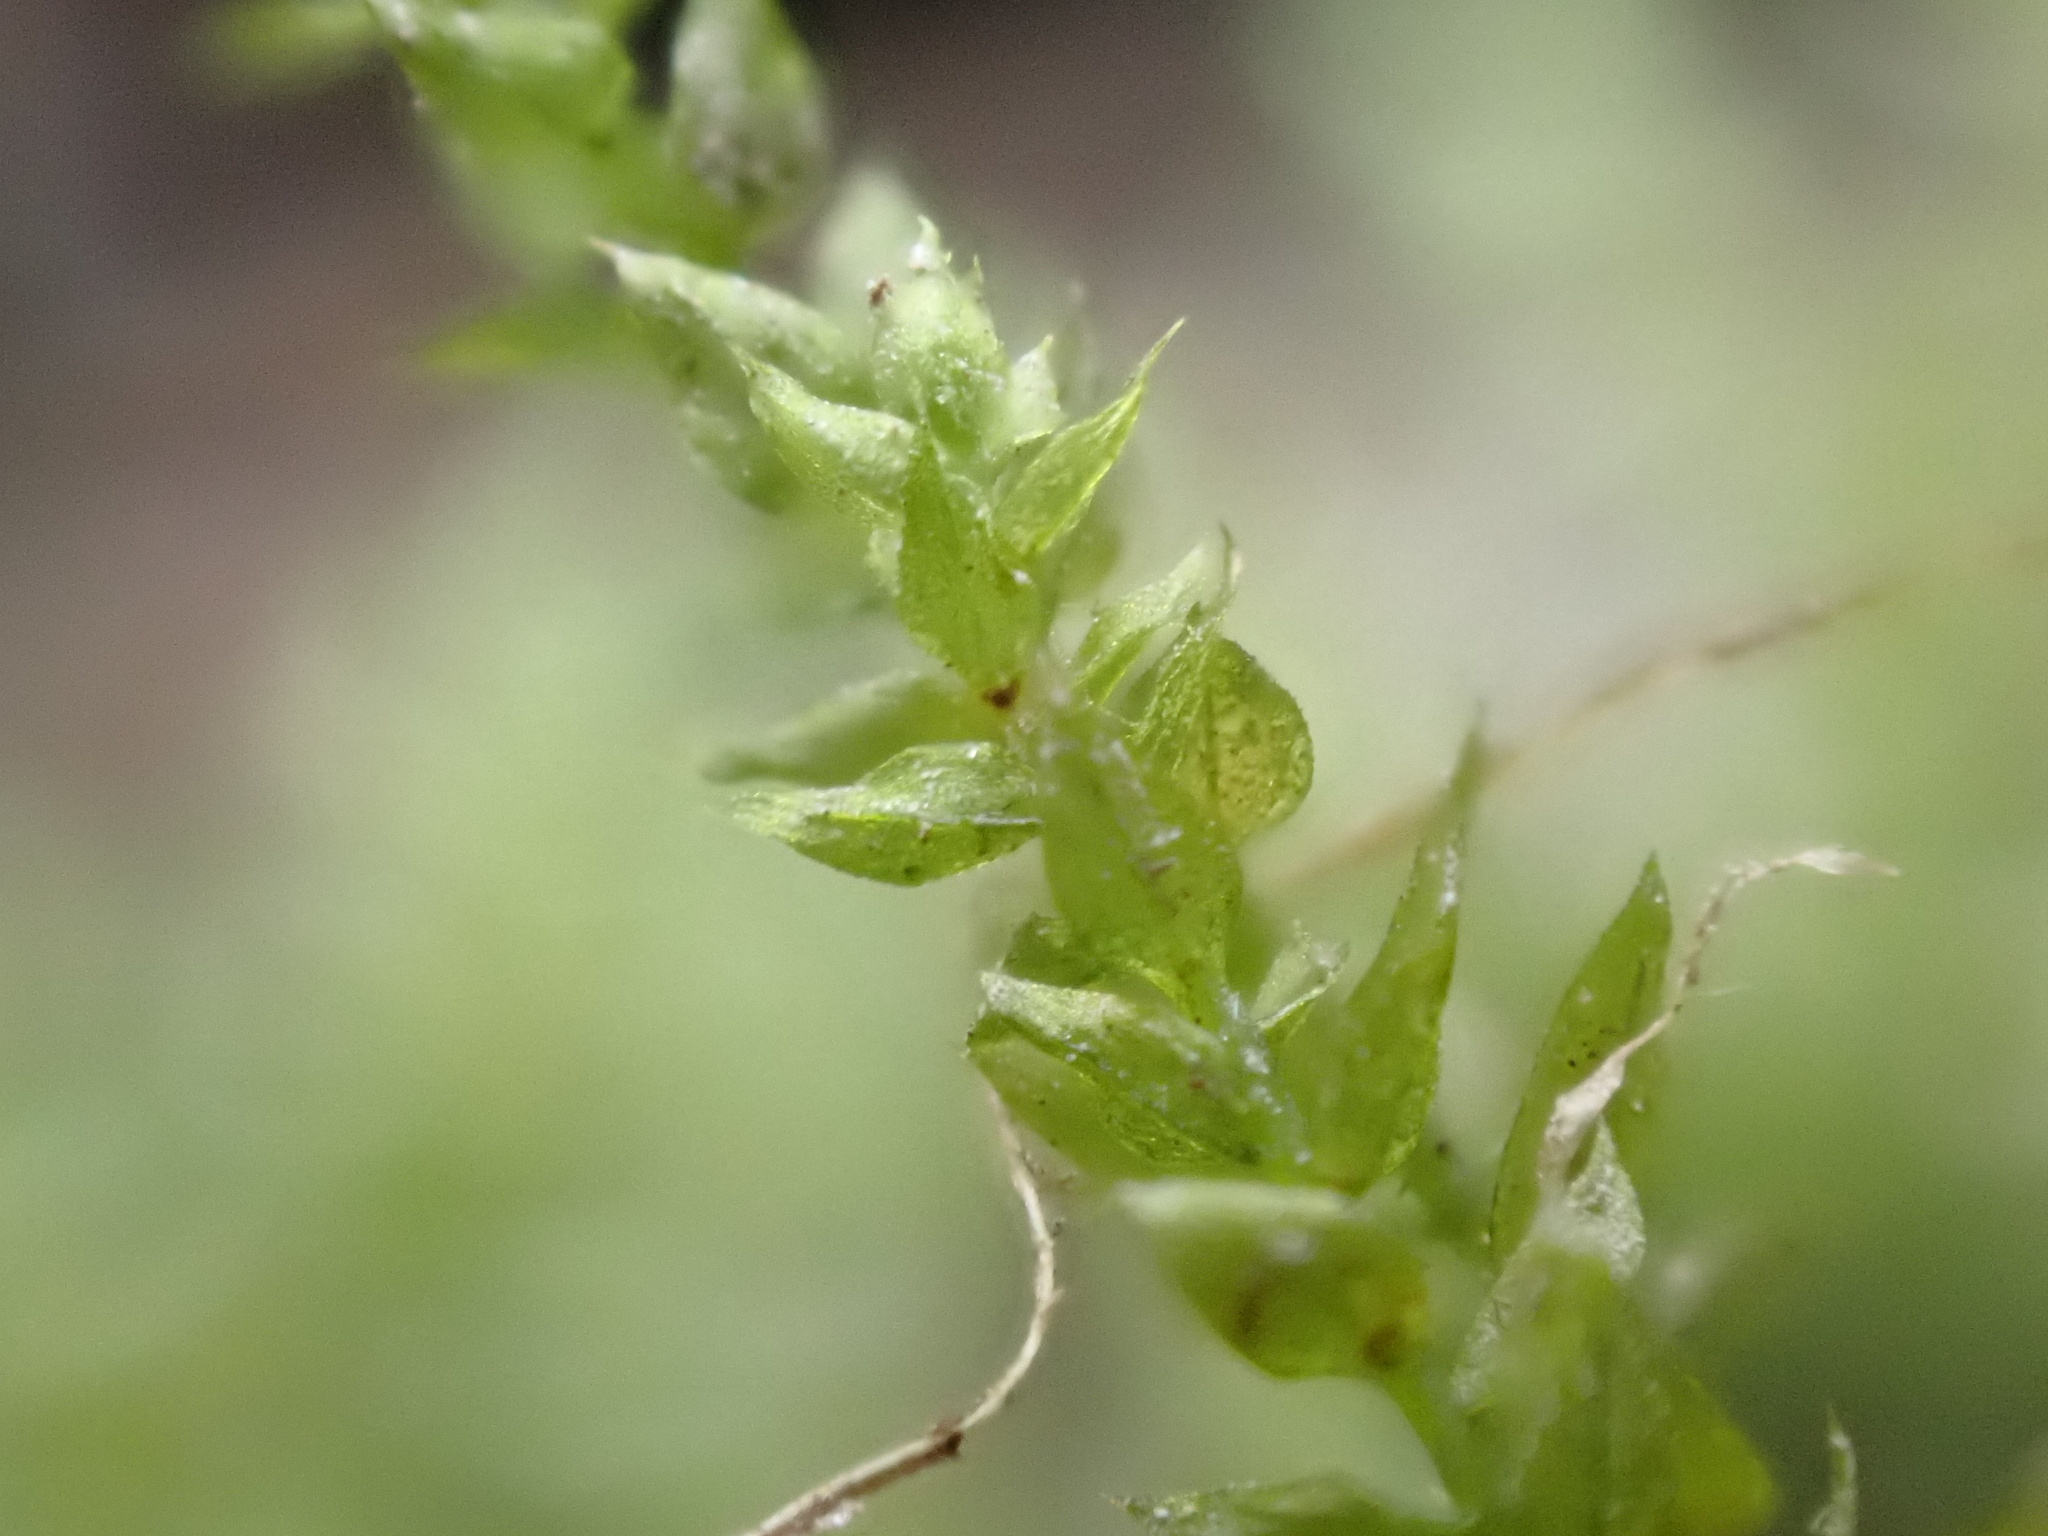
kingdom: Plantae
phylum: Bryophyta
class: Bryopsida
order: Hypnales
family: Brachytheciaceae
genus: Oxyrrhynchium
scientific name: Oxyrrhynchium hians
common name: Spreading beaked moss
